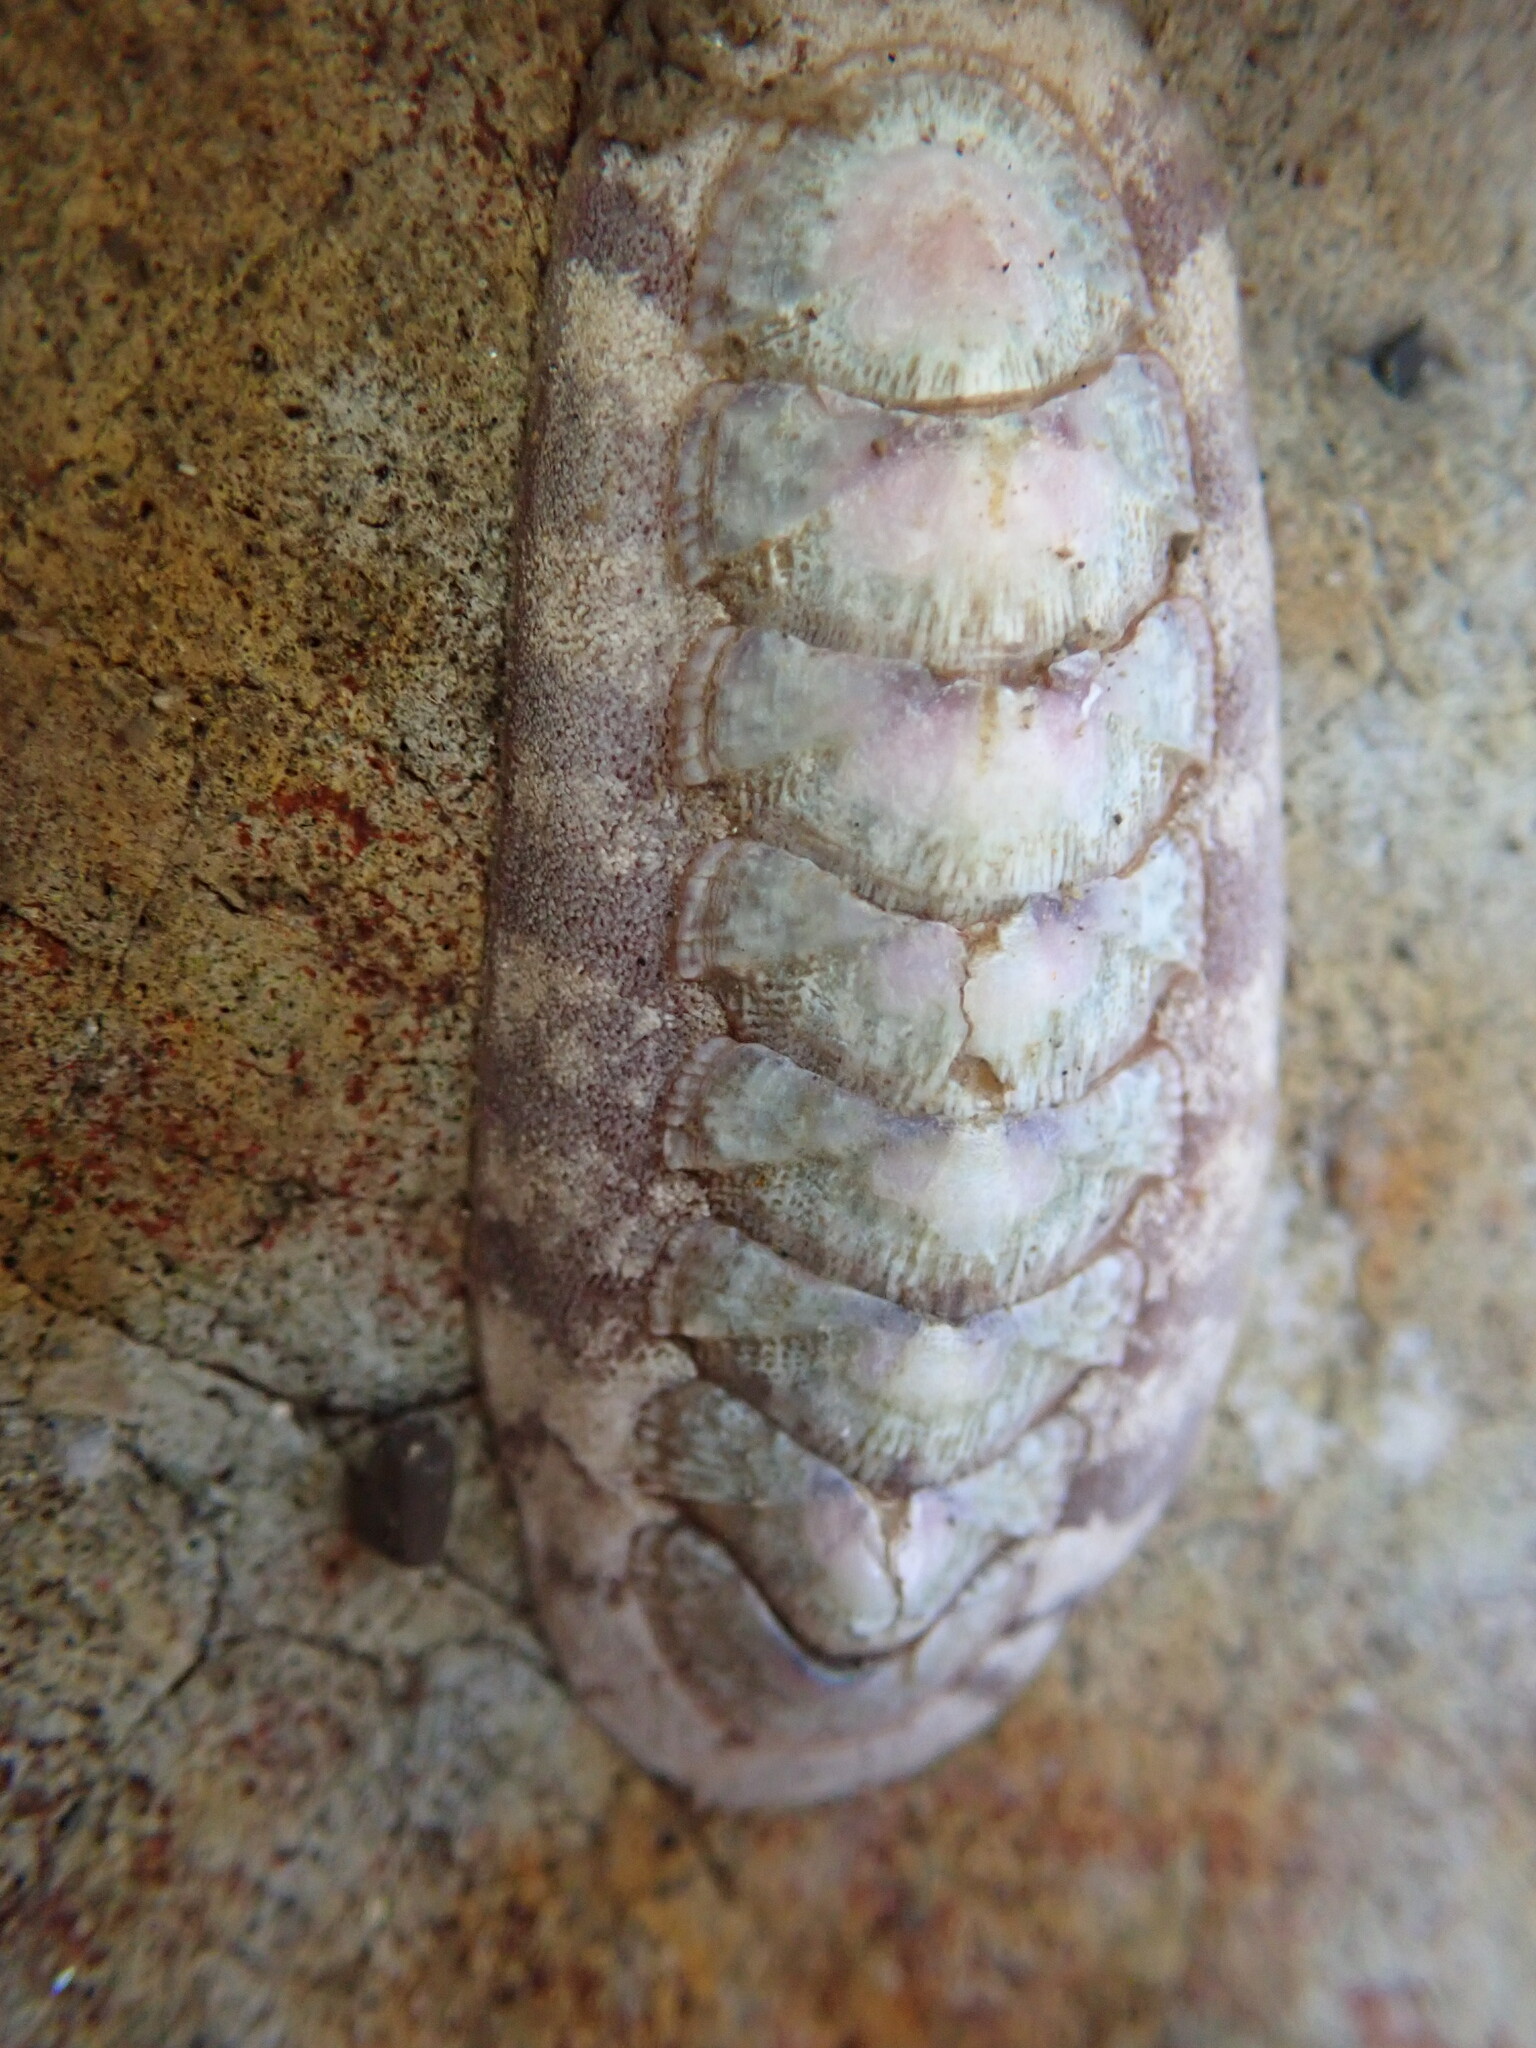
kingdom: Animalia
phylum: Mollusca
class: Polyplacophora
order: Chitonida
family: Ischnochitonidae
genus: Stenoplax
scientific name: Stenoplax heathiana
